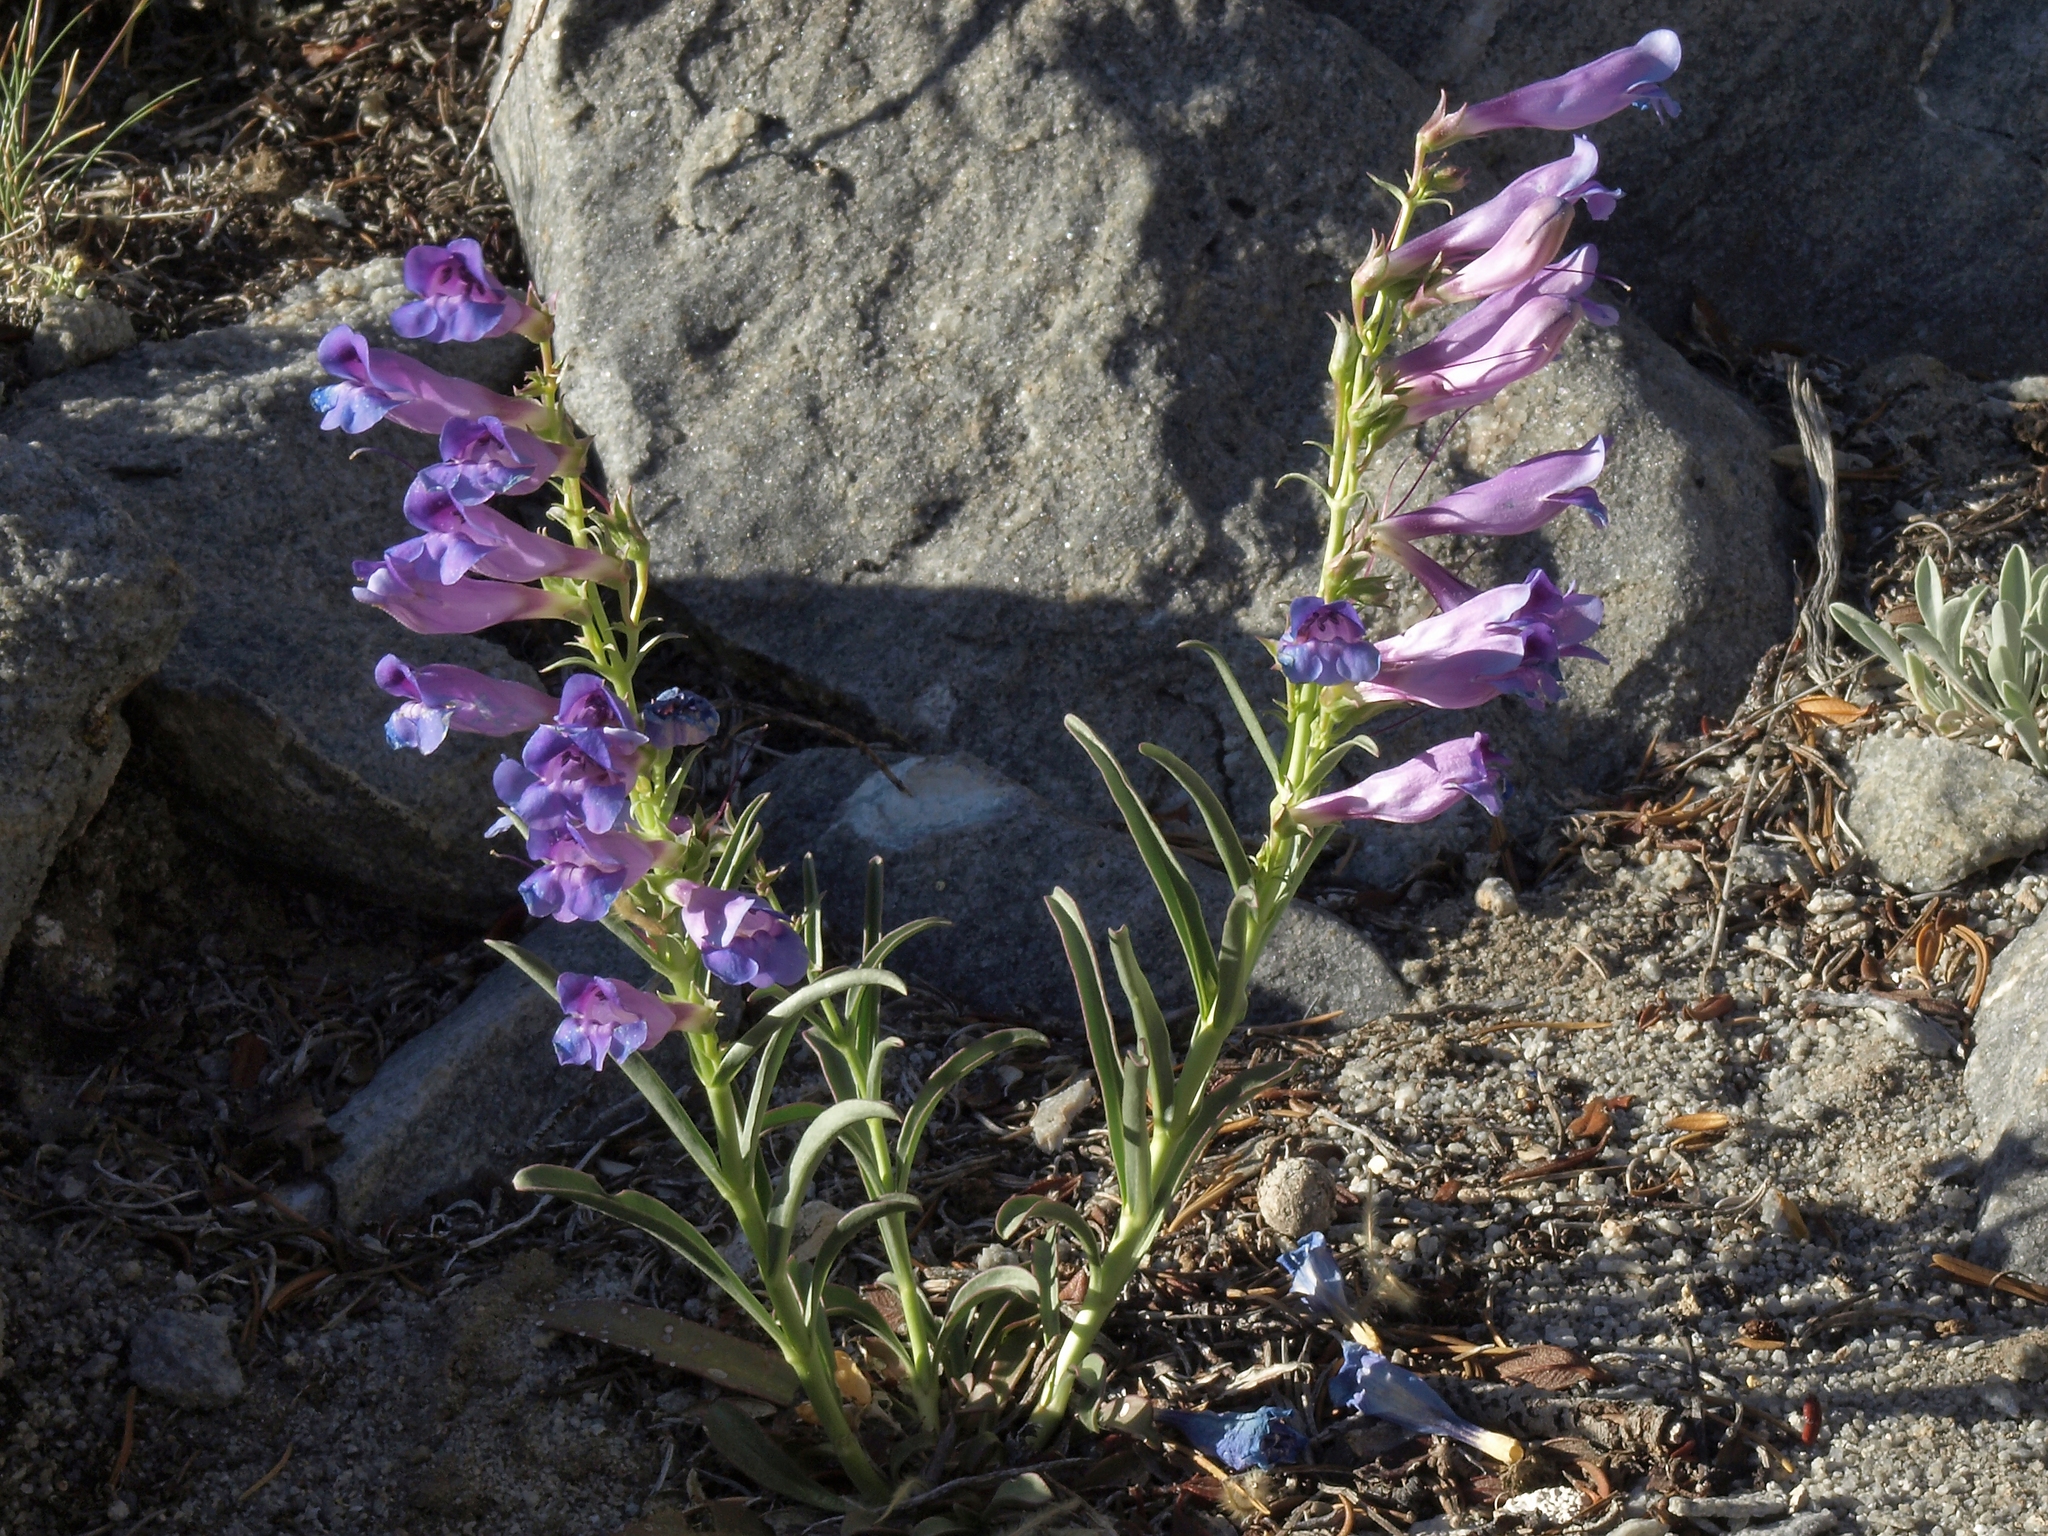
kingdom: Plantae
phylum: Tracheophyta
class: Magnoliopsida
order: Lamiales
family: Plantaginaceae
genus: Penstemon
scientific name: Penstemon speciosus
